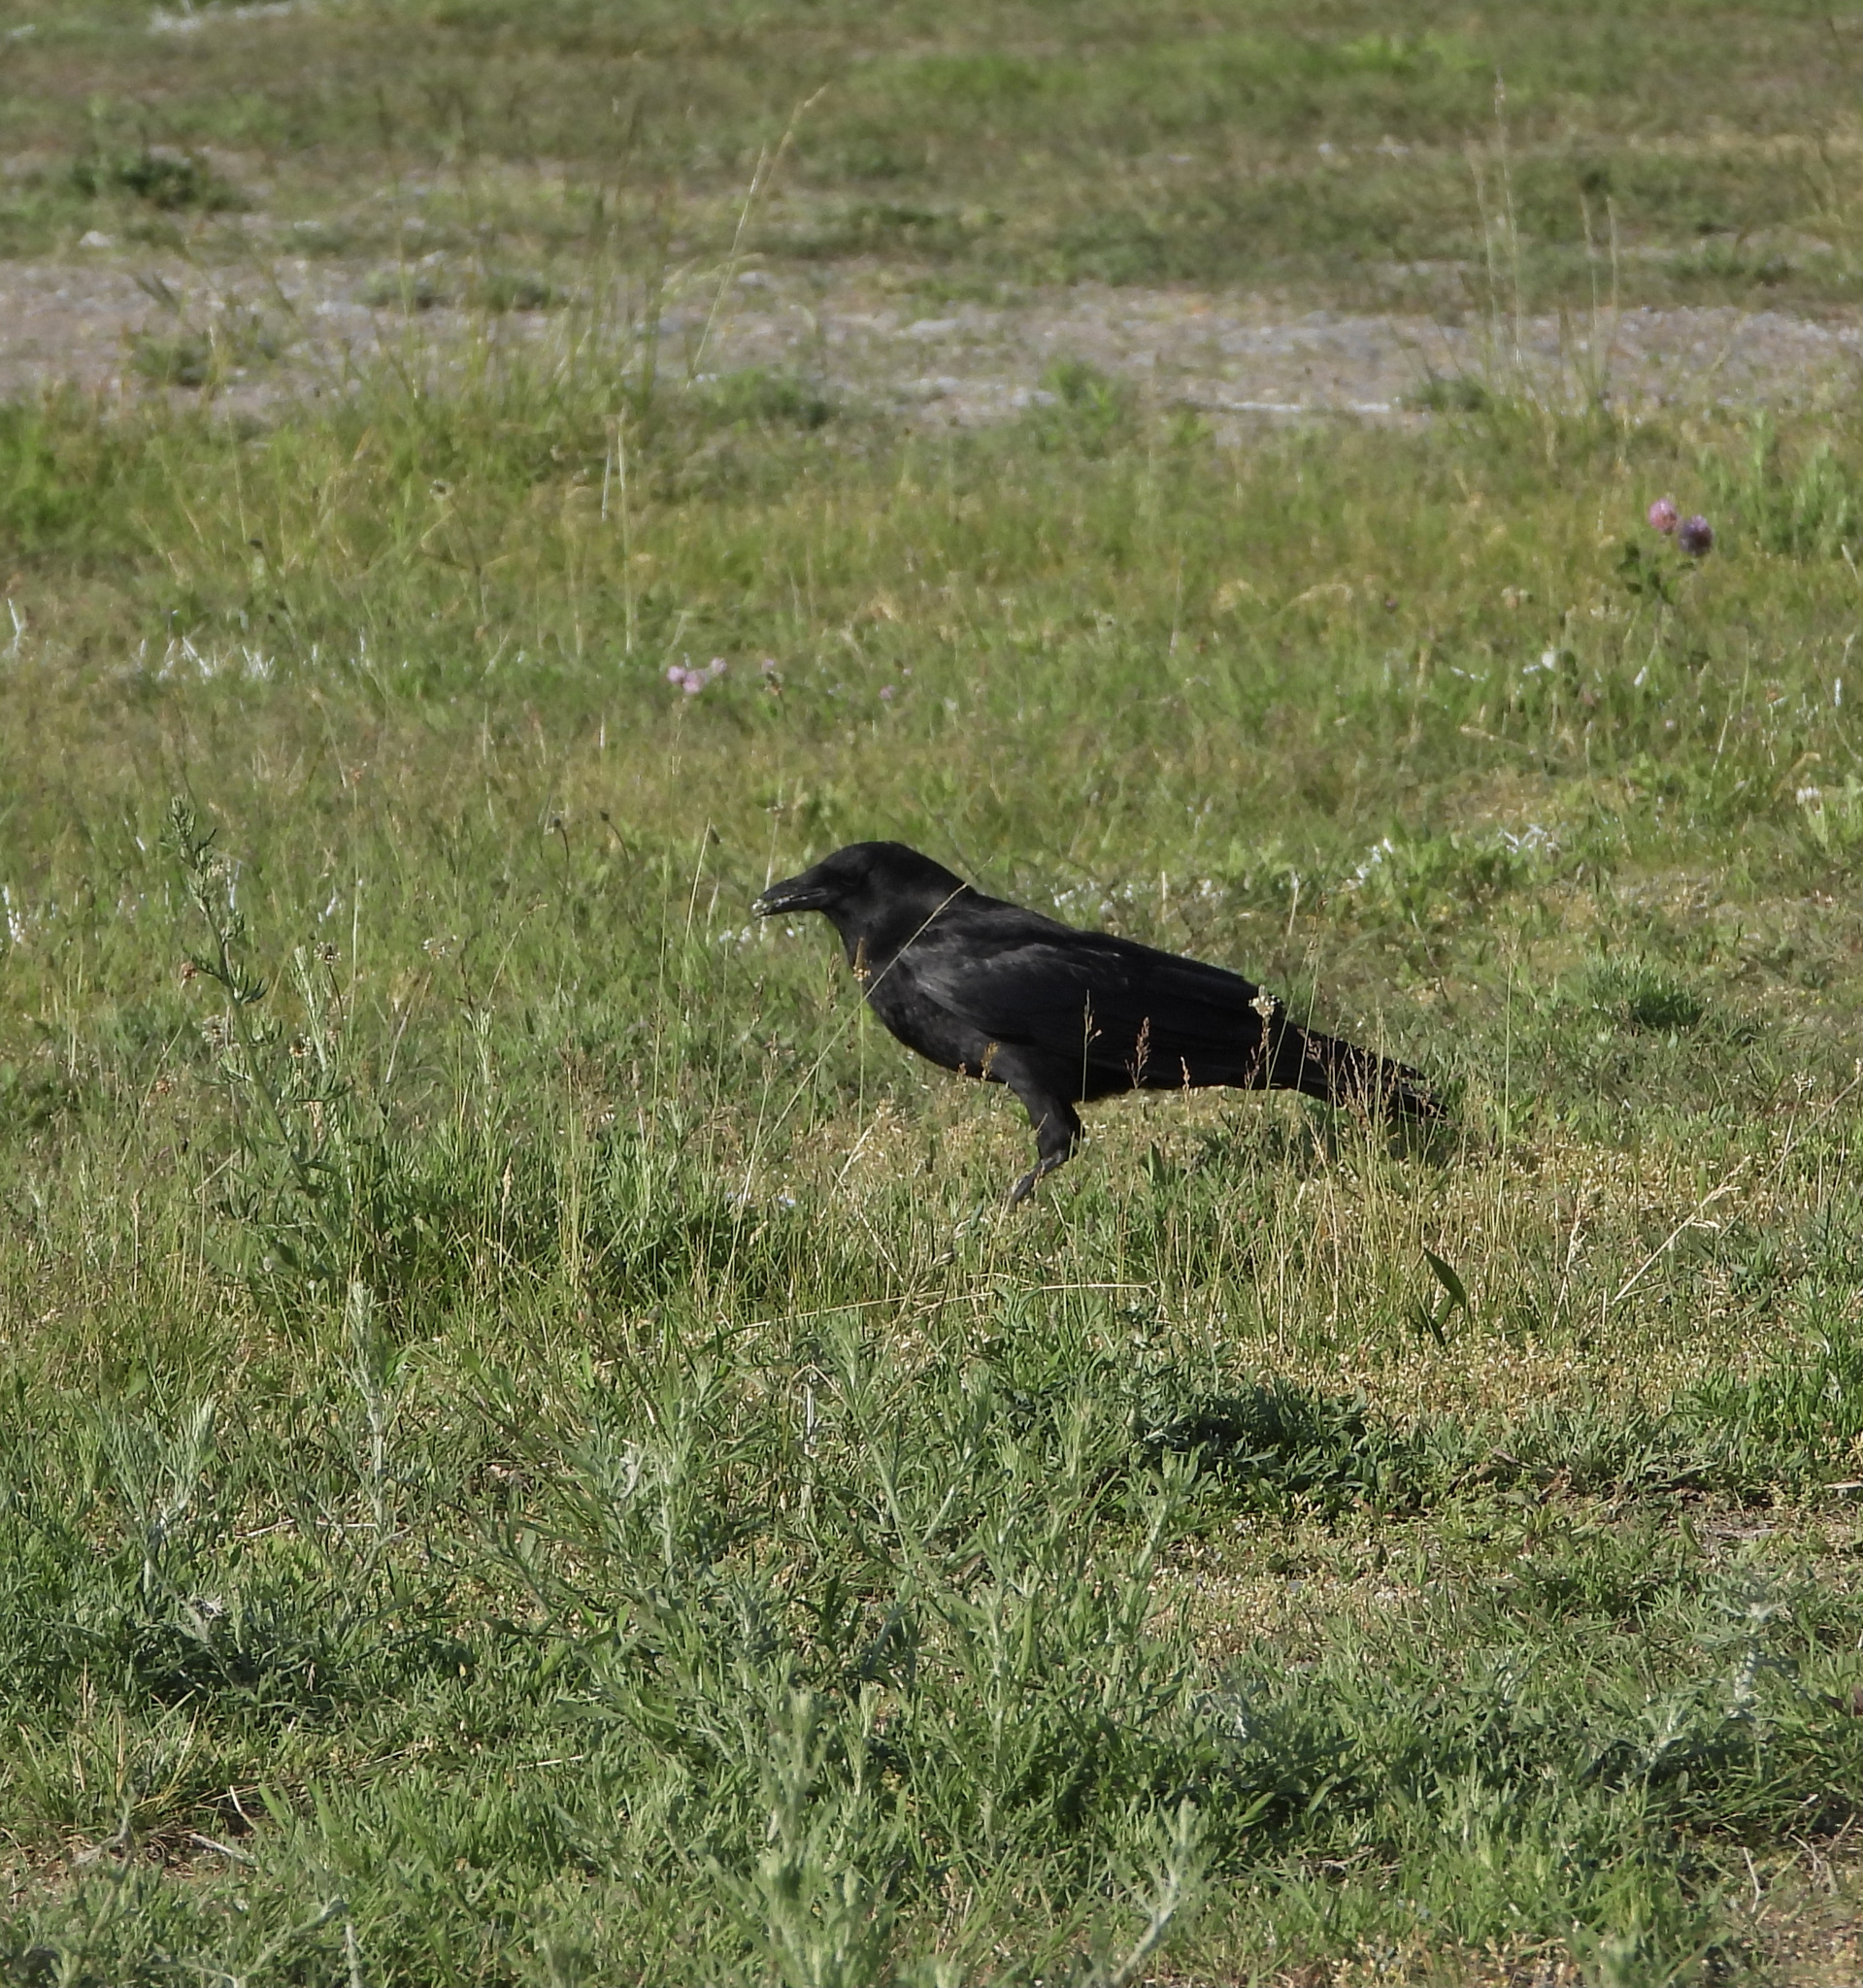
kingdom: Animalia
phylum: Chordata
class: Aves
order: Passeriformes
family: Corvidae
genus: Corvus
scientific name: Corvus brachyrhynchos
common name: American crow
